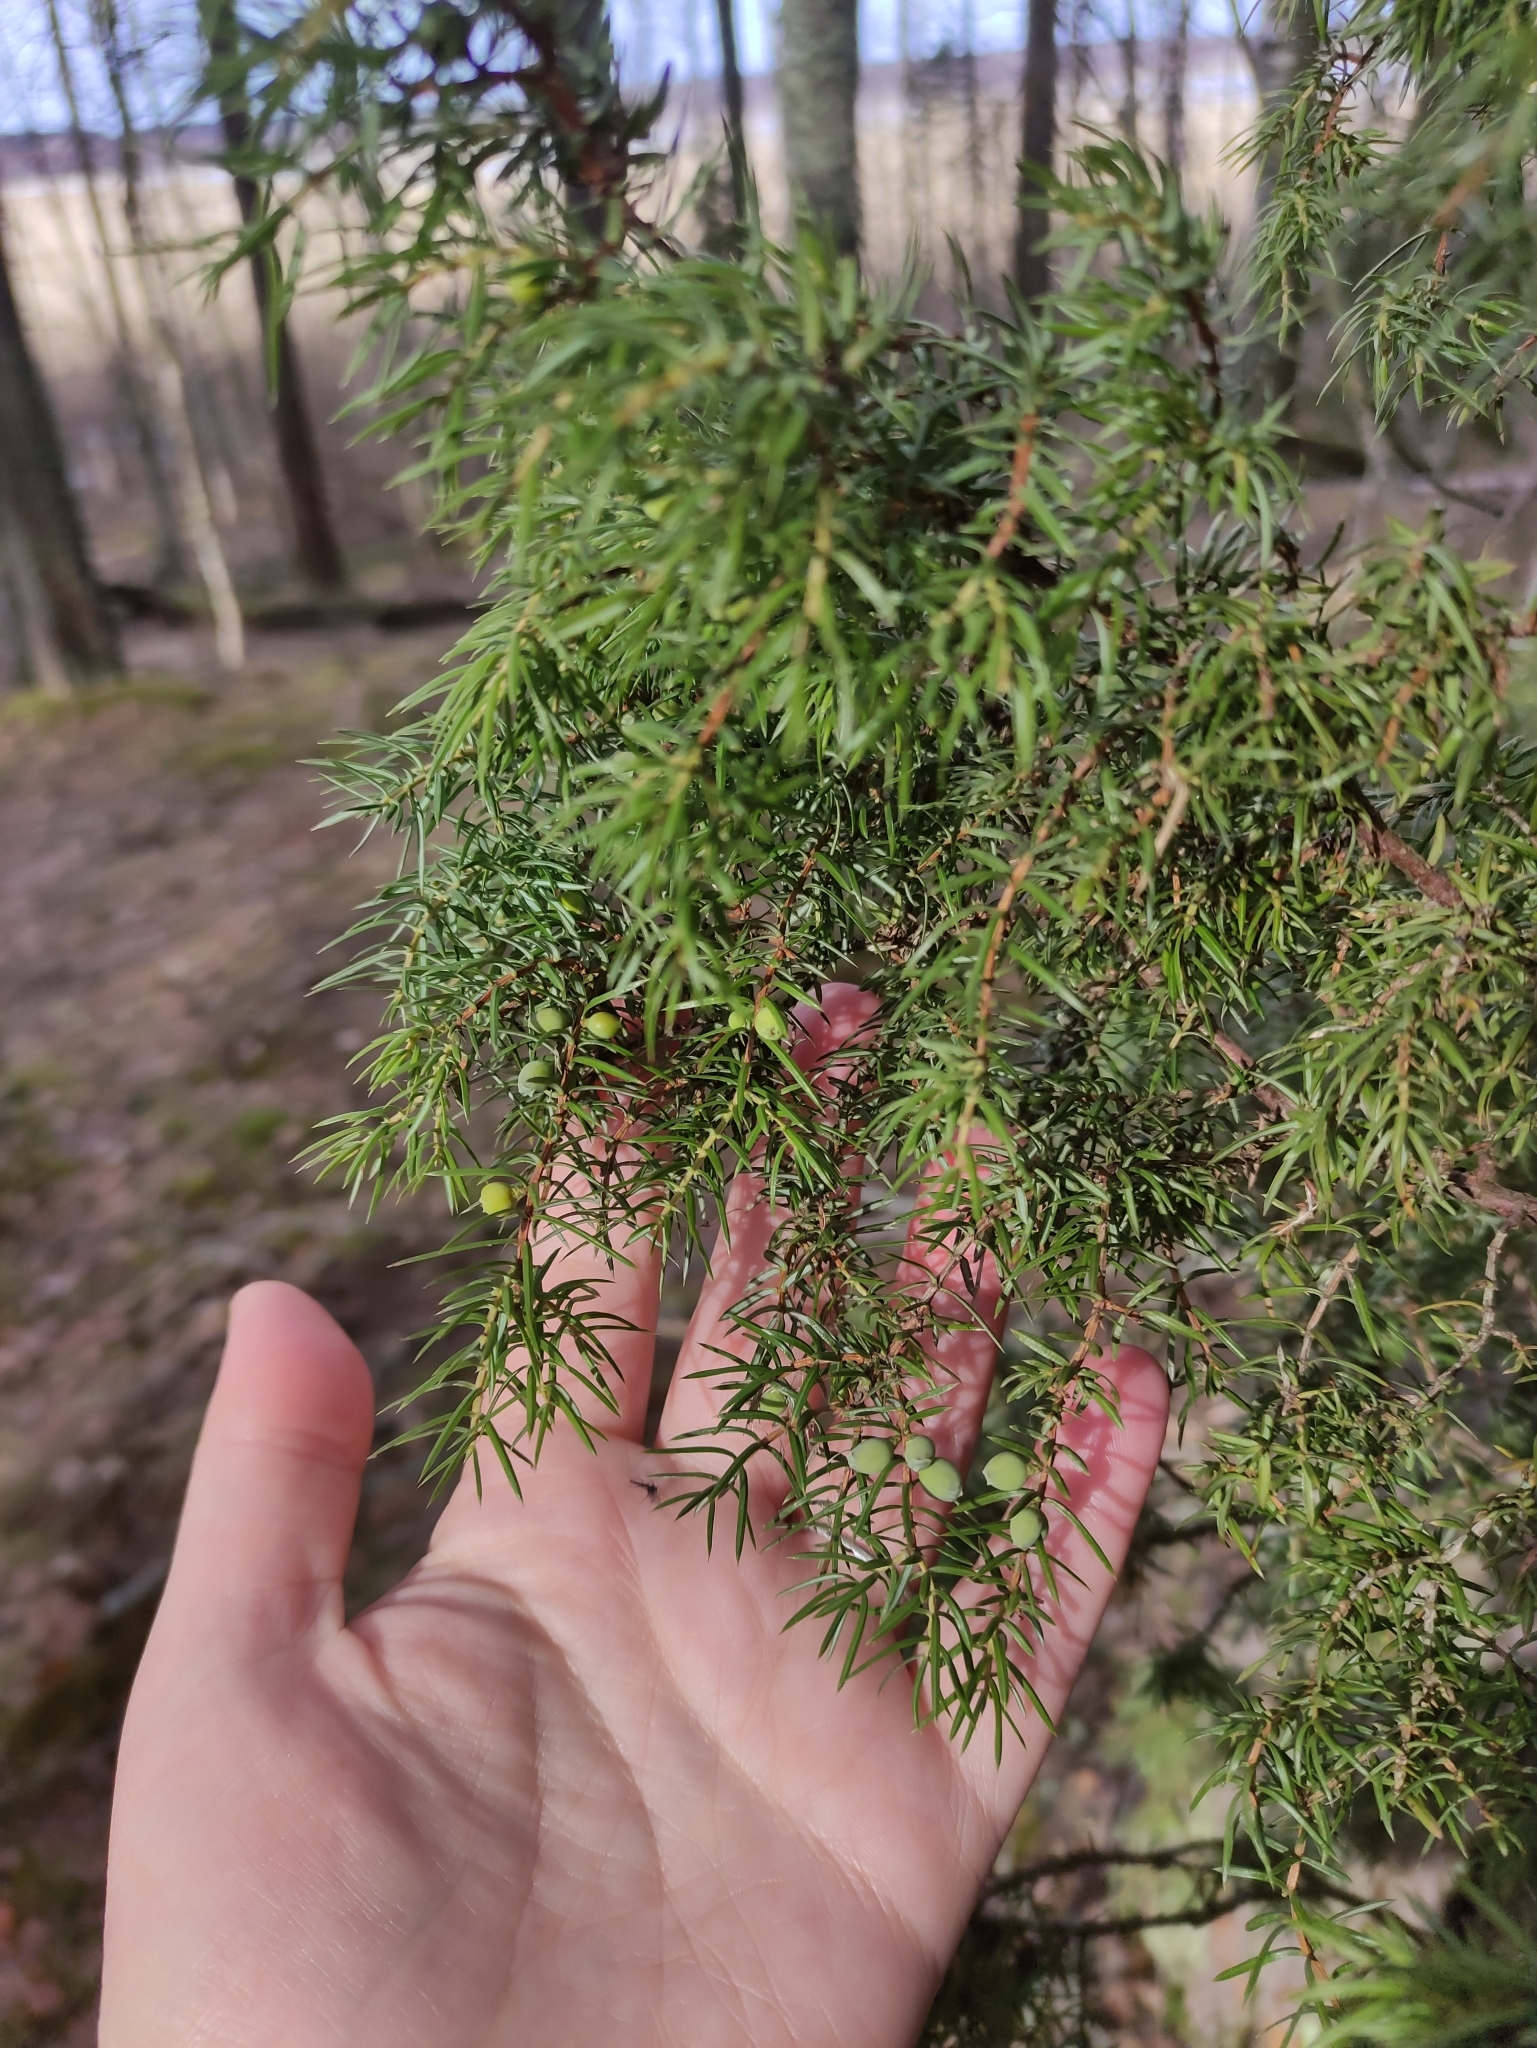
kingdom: Plantae
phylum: Tracheophyta
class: Pinopsida
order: Pinales
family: Cupressaceae
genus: Juniperus
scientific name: Juniperus communis
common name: Common juniper
